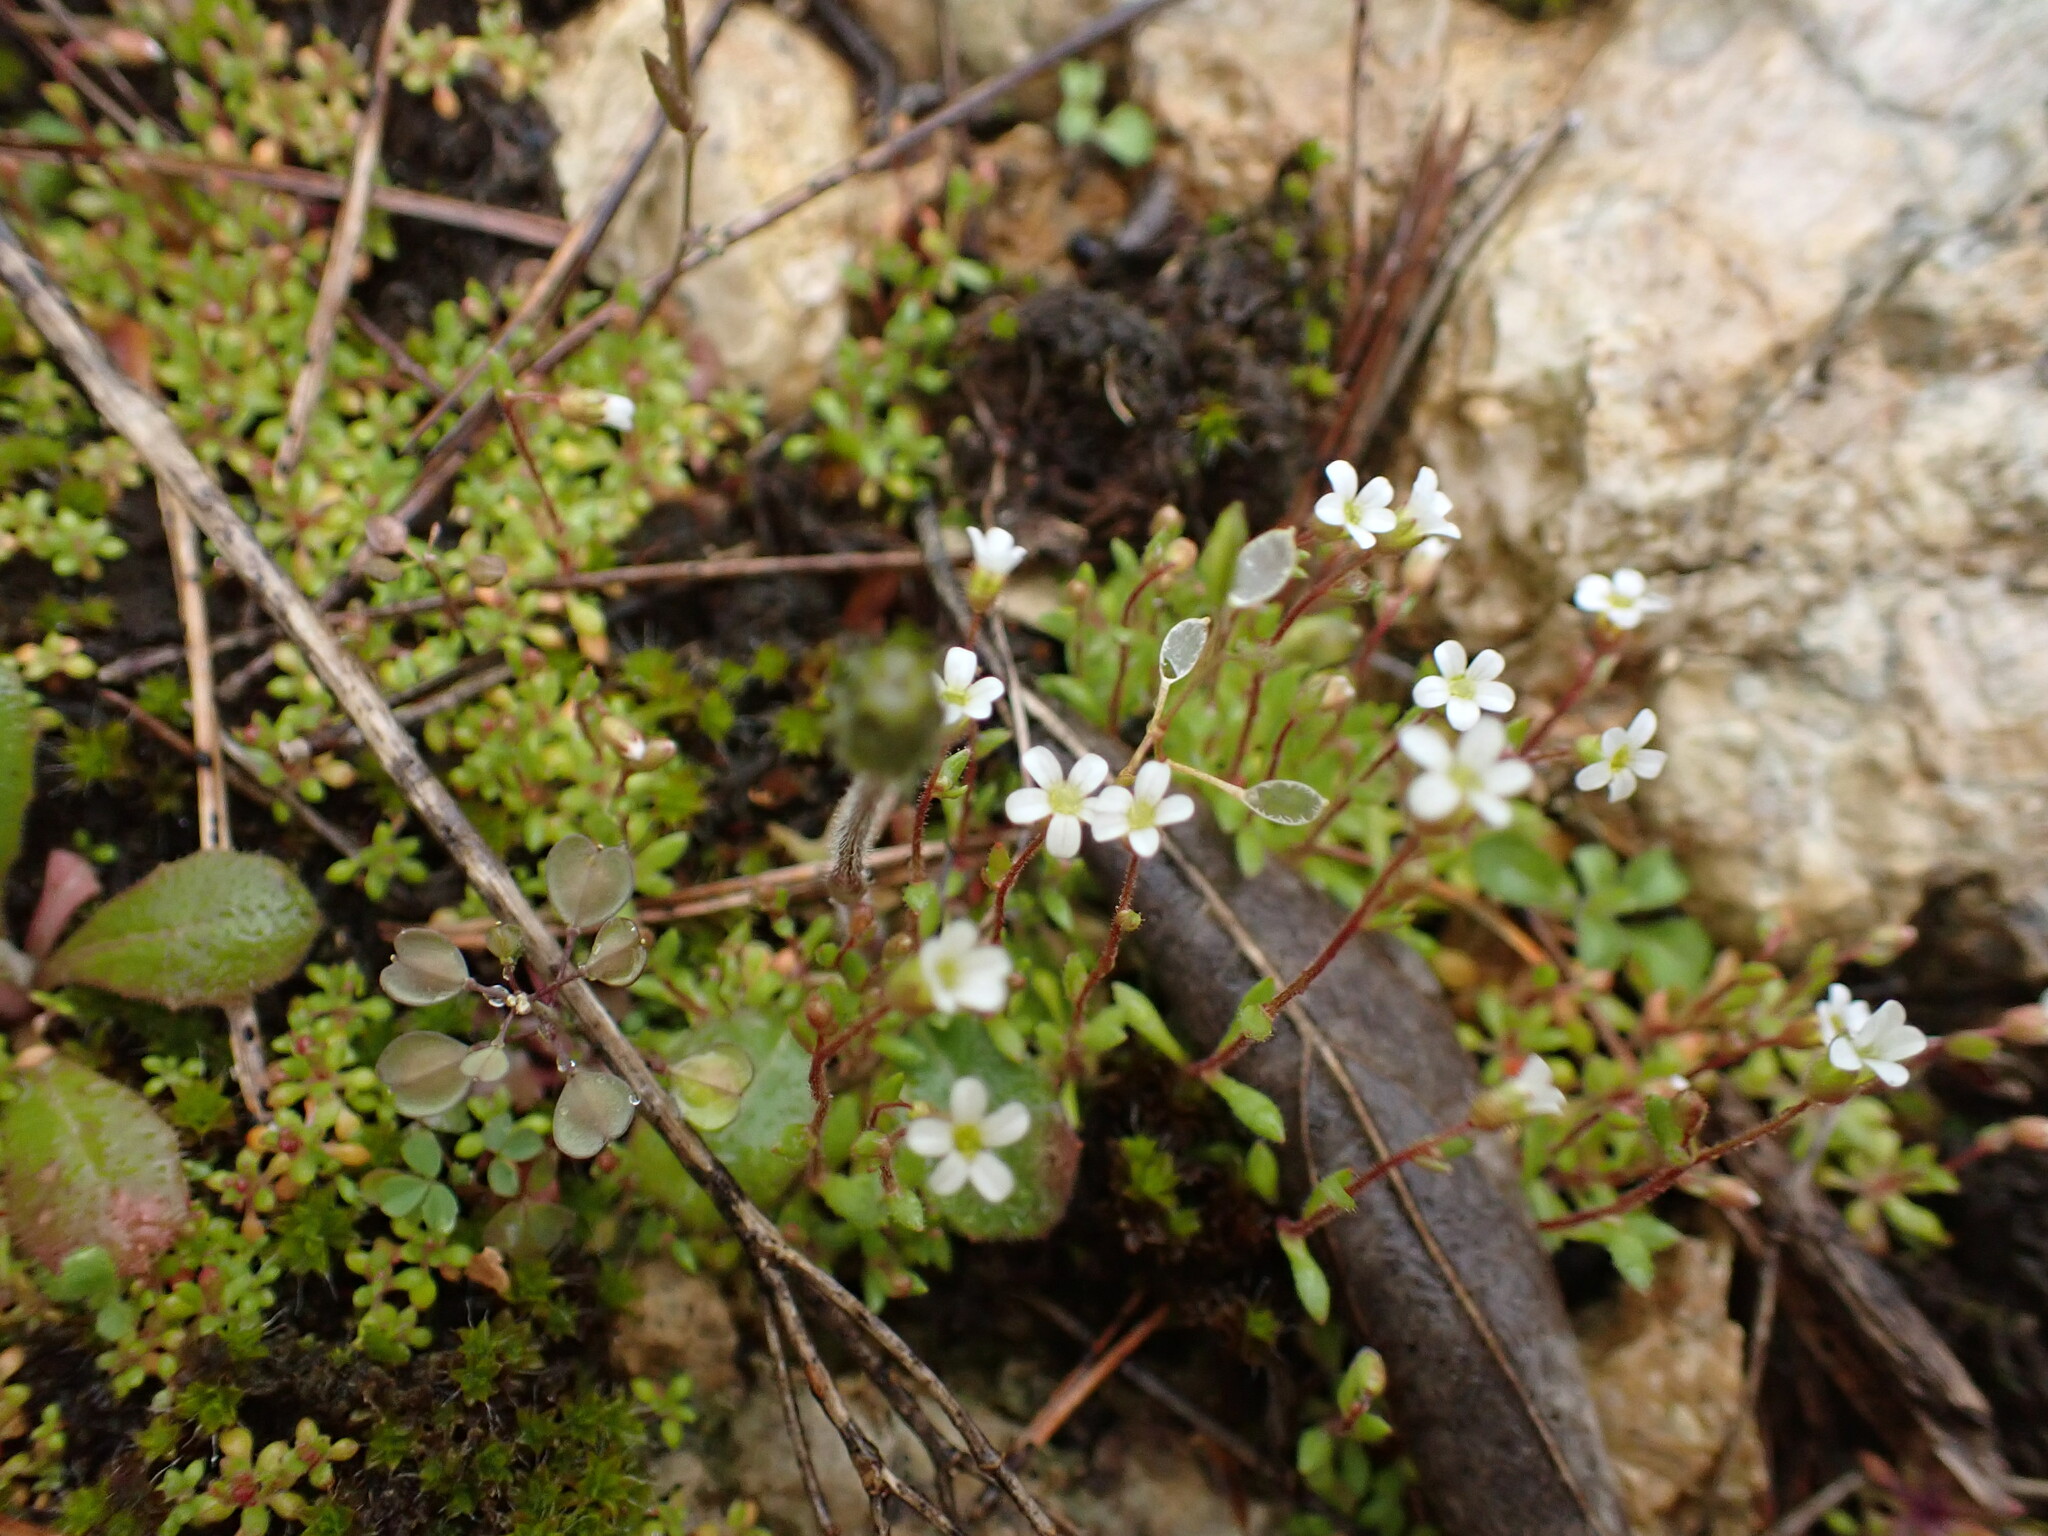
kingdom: Plantae
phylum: Tracheophyta
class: Magnoliopsida
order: Saxifragales
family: Saxifragaceae
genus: Saxifraga
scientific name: Saxifraga tridactylites
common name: Rue-leaved saxifrage
